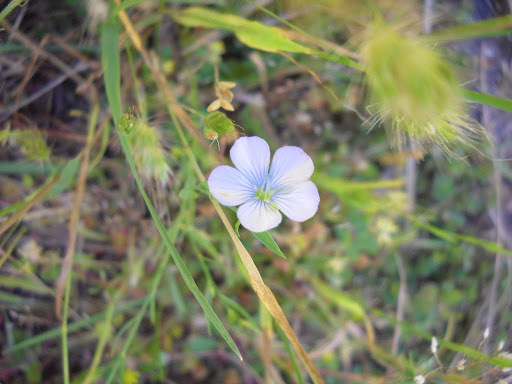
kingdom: Plantae
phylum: Tracheophyta
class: Magnoliopsida
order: Malpighiales
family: Linaceae
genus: Linum
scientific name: Linum bienne
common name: Pale flax
